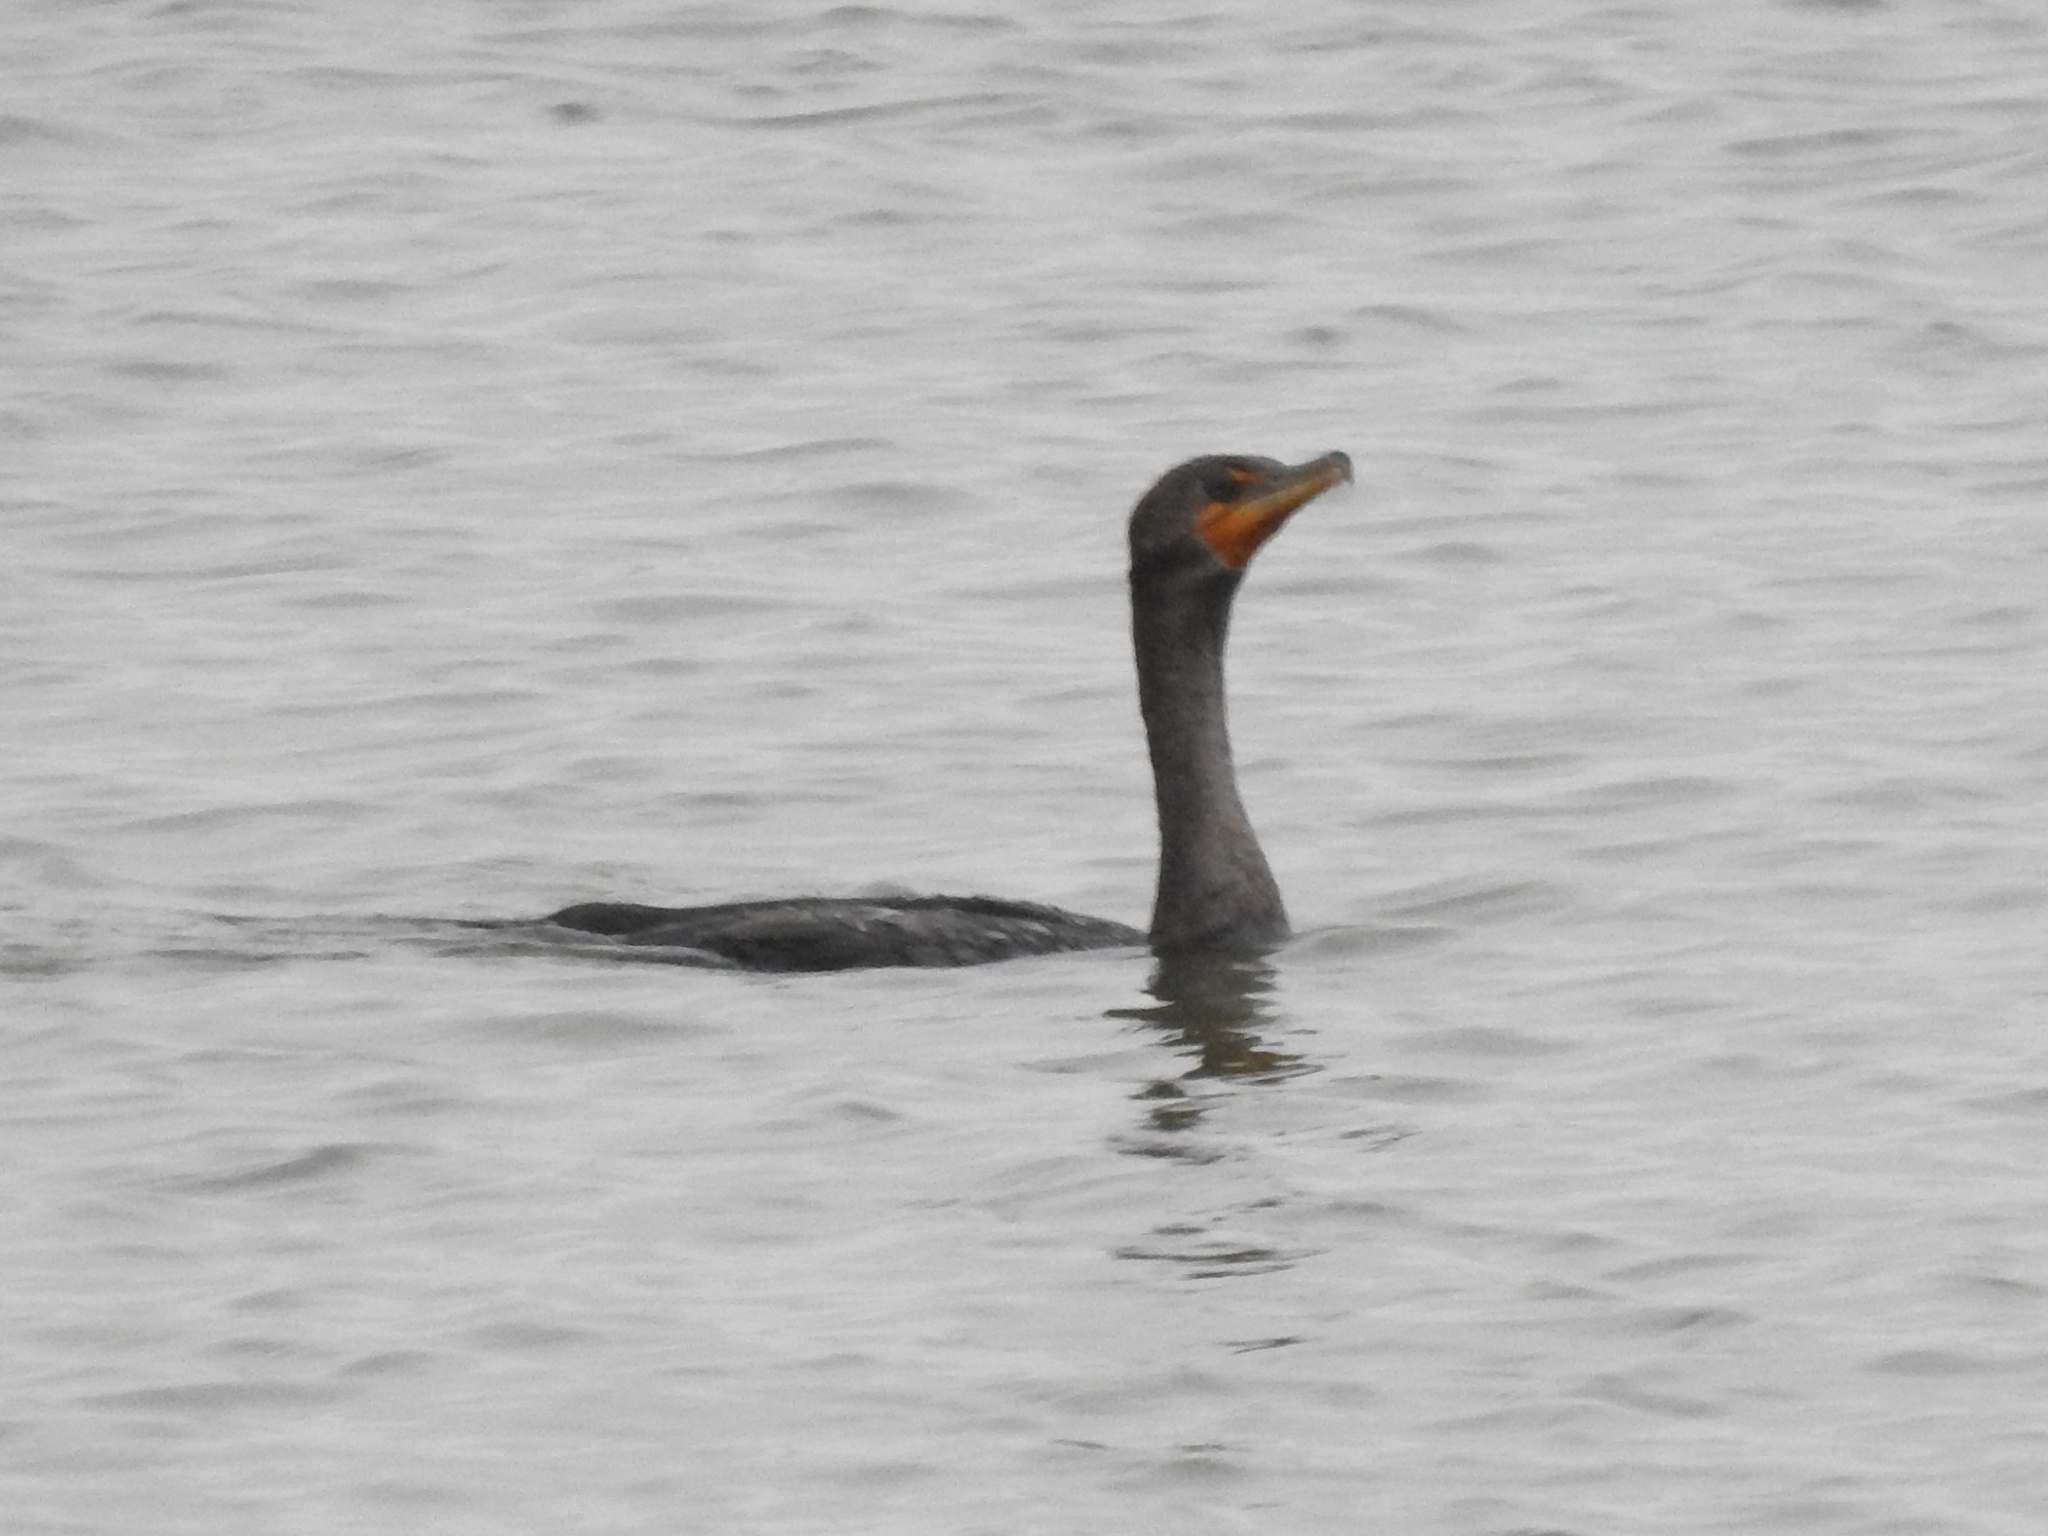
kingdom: Animalia
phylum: Chordata
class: Aves
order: Suliformes
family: Phalacrocoracidae
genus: Phalacrocorax
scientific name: Phalacrocorax auritus
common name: Double-crested cormorant
